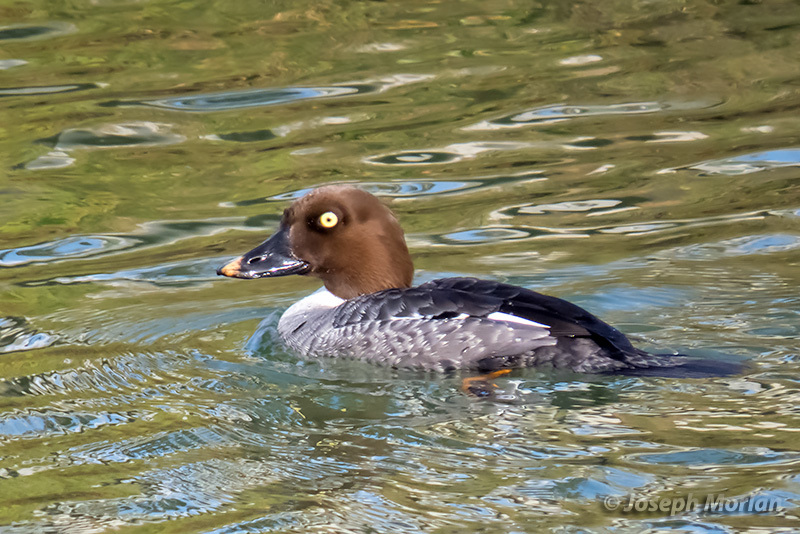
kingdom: Animalia
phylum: Chordata
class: Aves
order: Anseriformes
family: Anatidae
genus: Bucephala
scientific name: Bucephala clangula
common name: Common goldeneye
